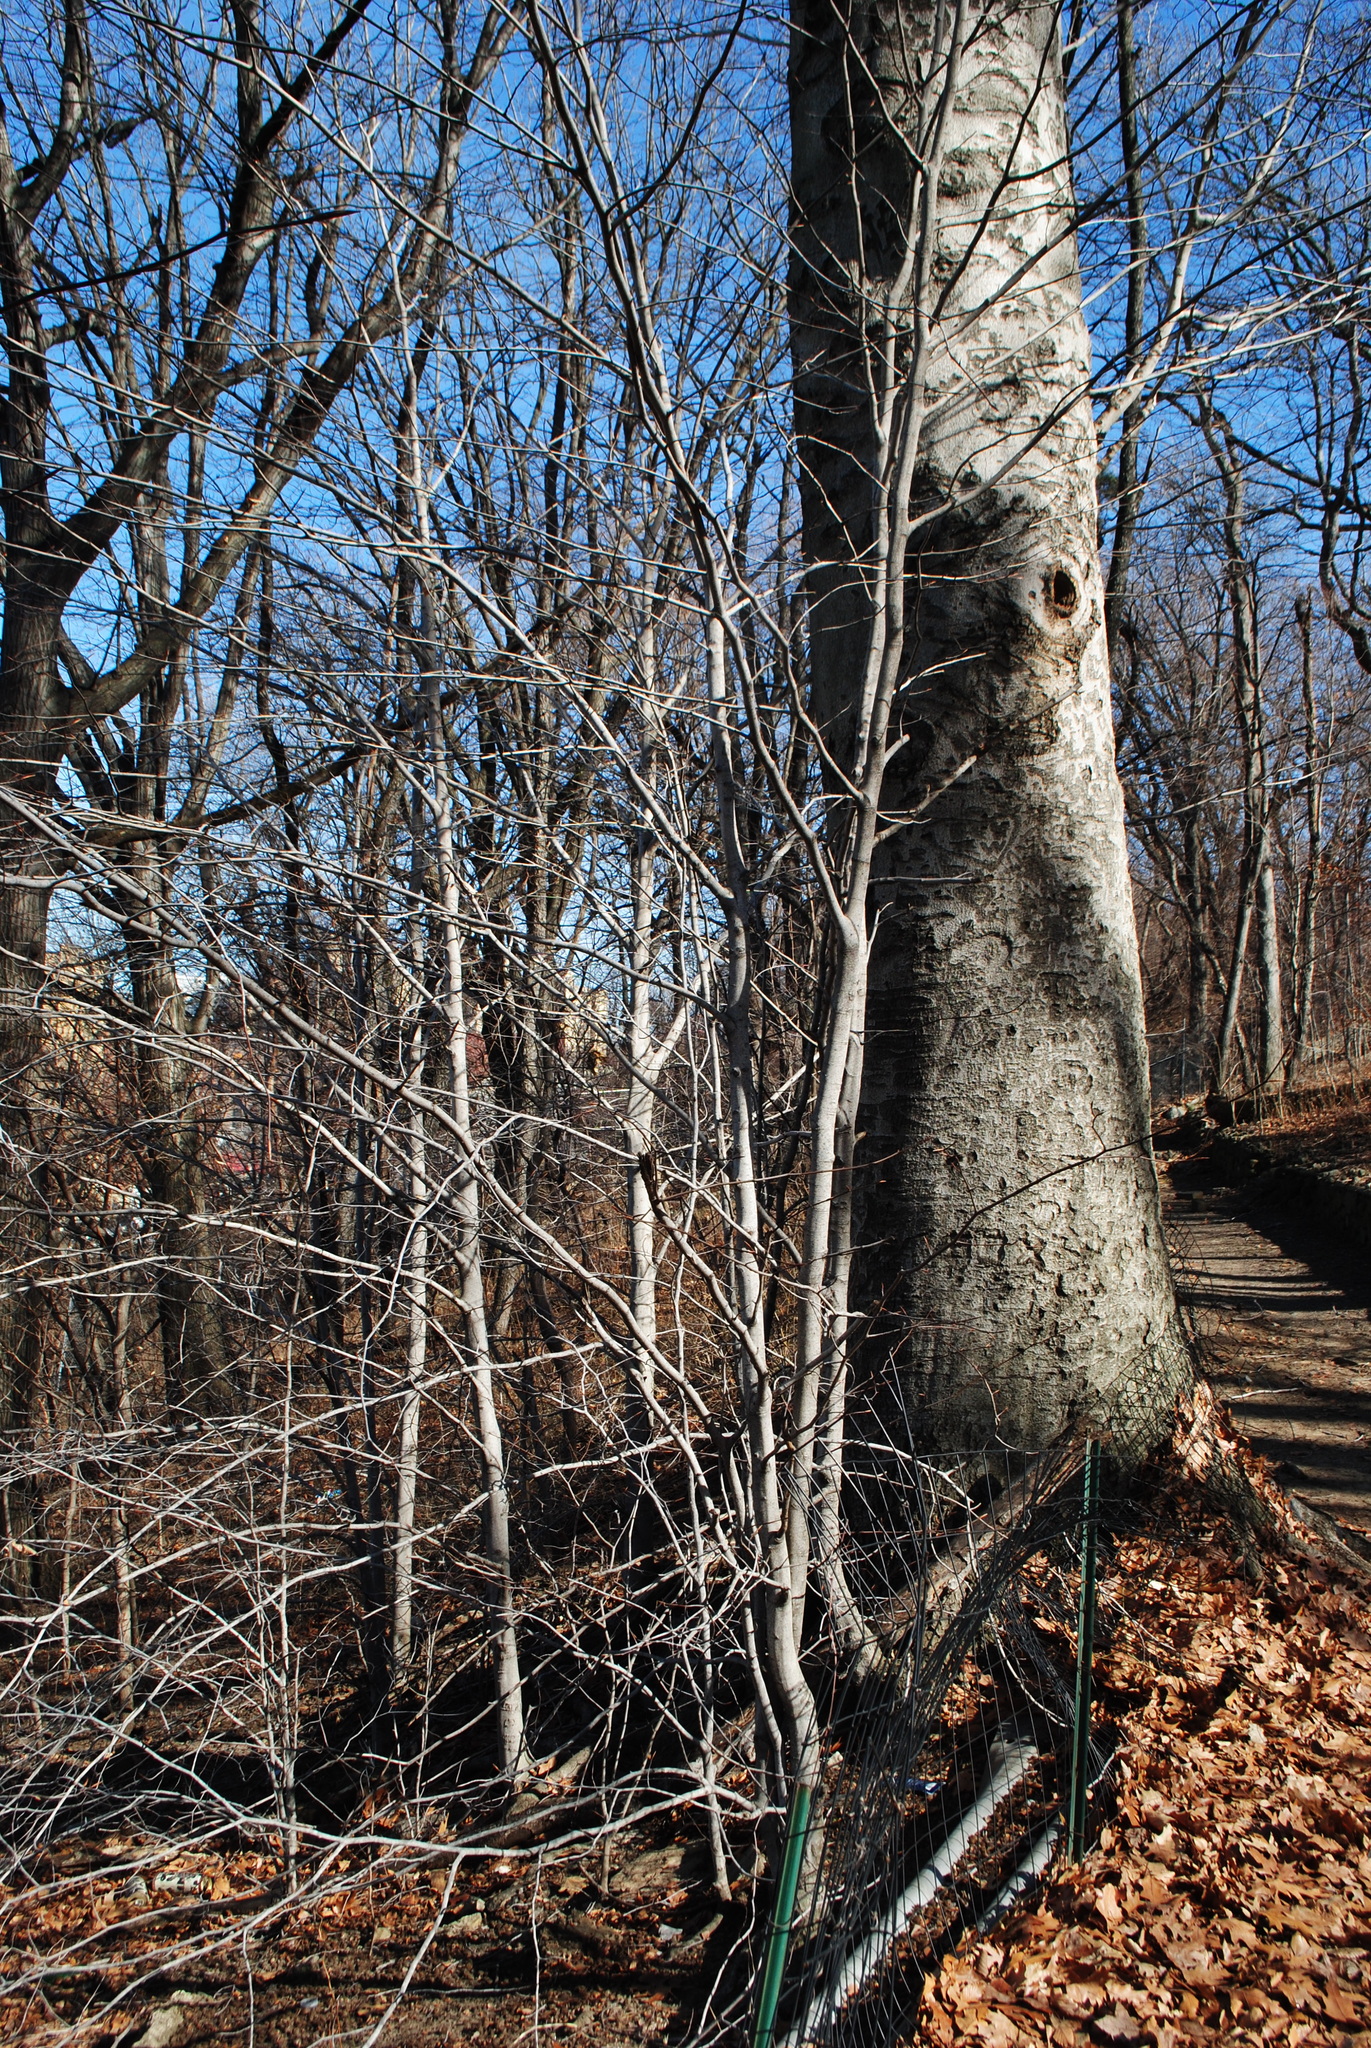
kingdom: Plantae
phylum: Tracheophyta
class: Magnoliopsida
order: Fagales
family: Fagaceae
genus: Fagus
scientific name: Fagus grandifolia
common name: American beech
